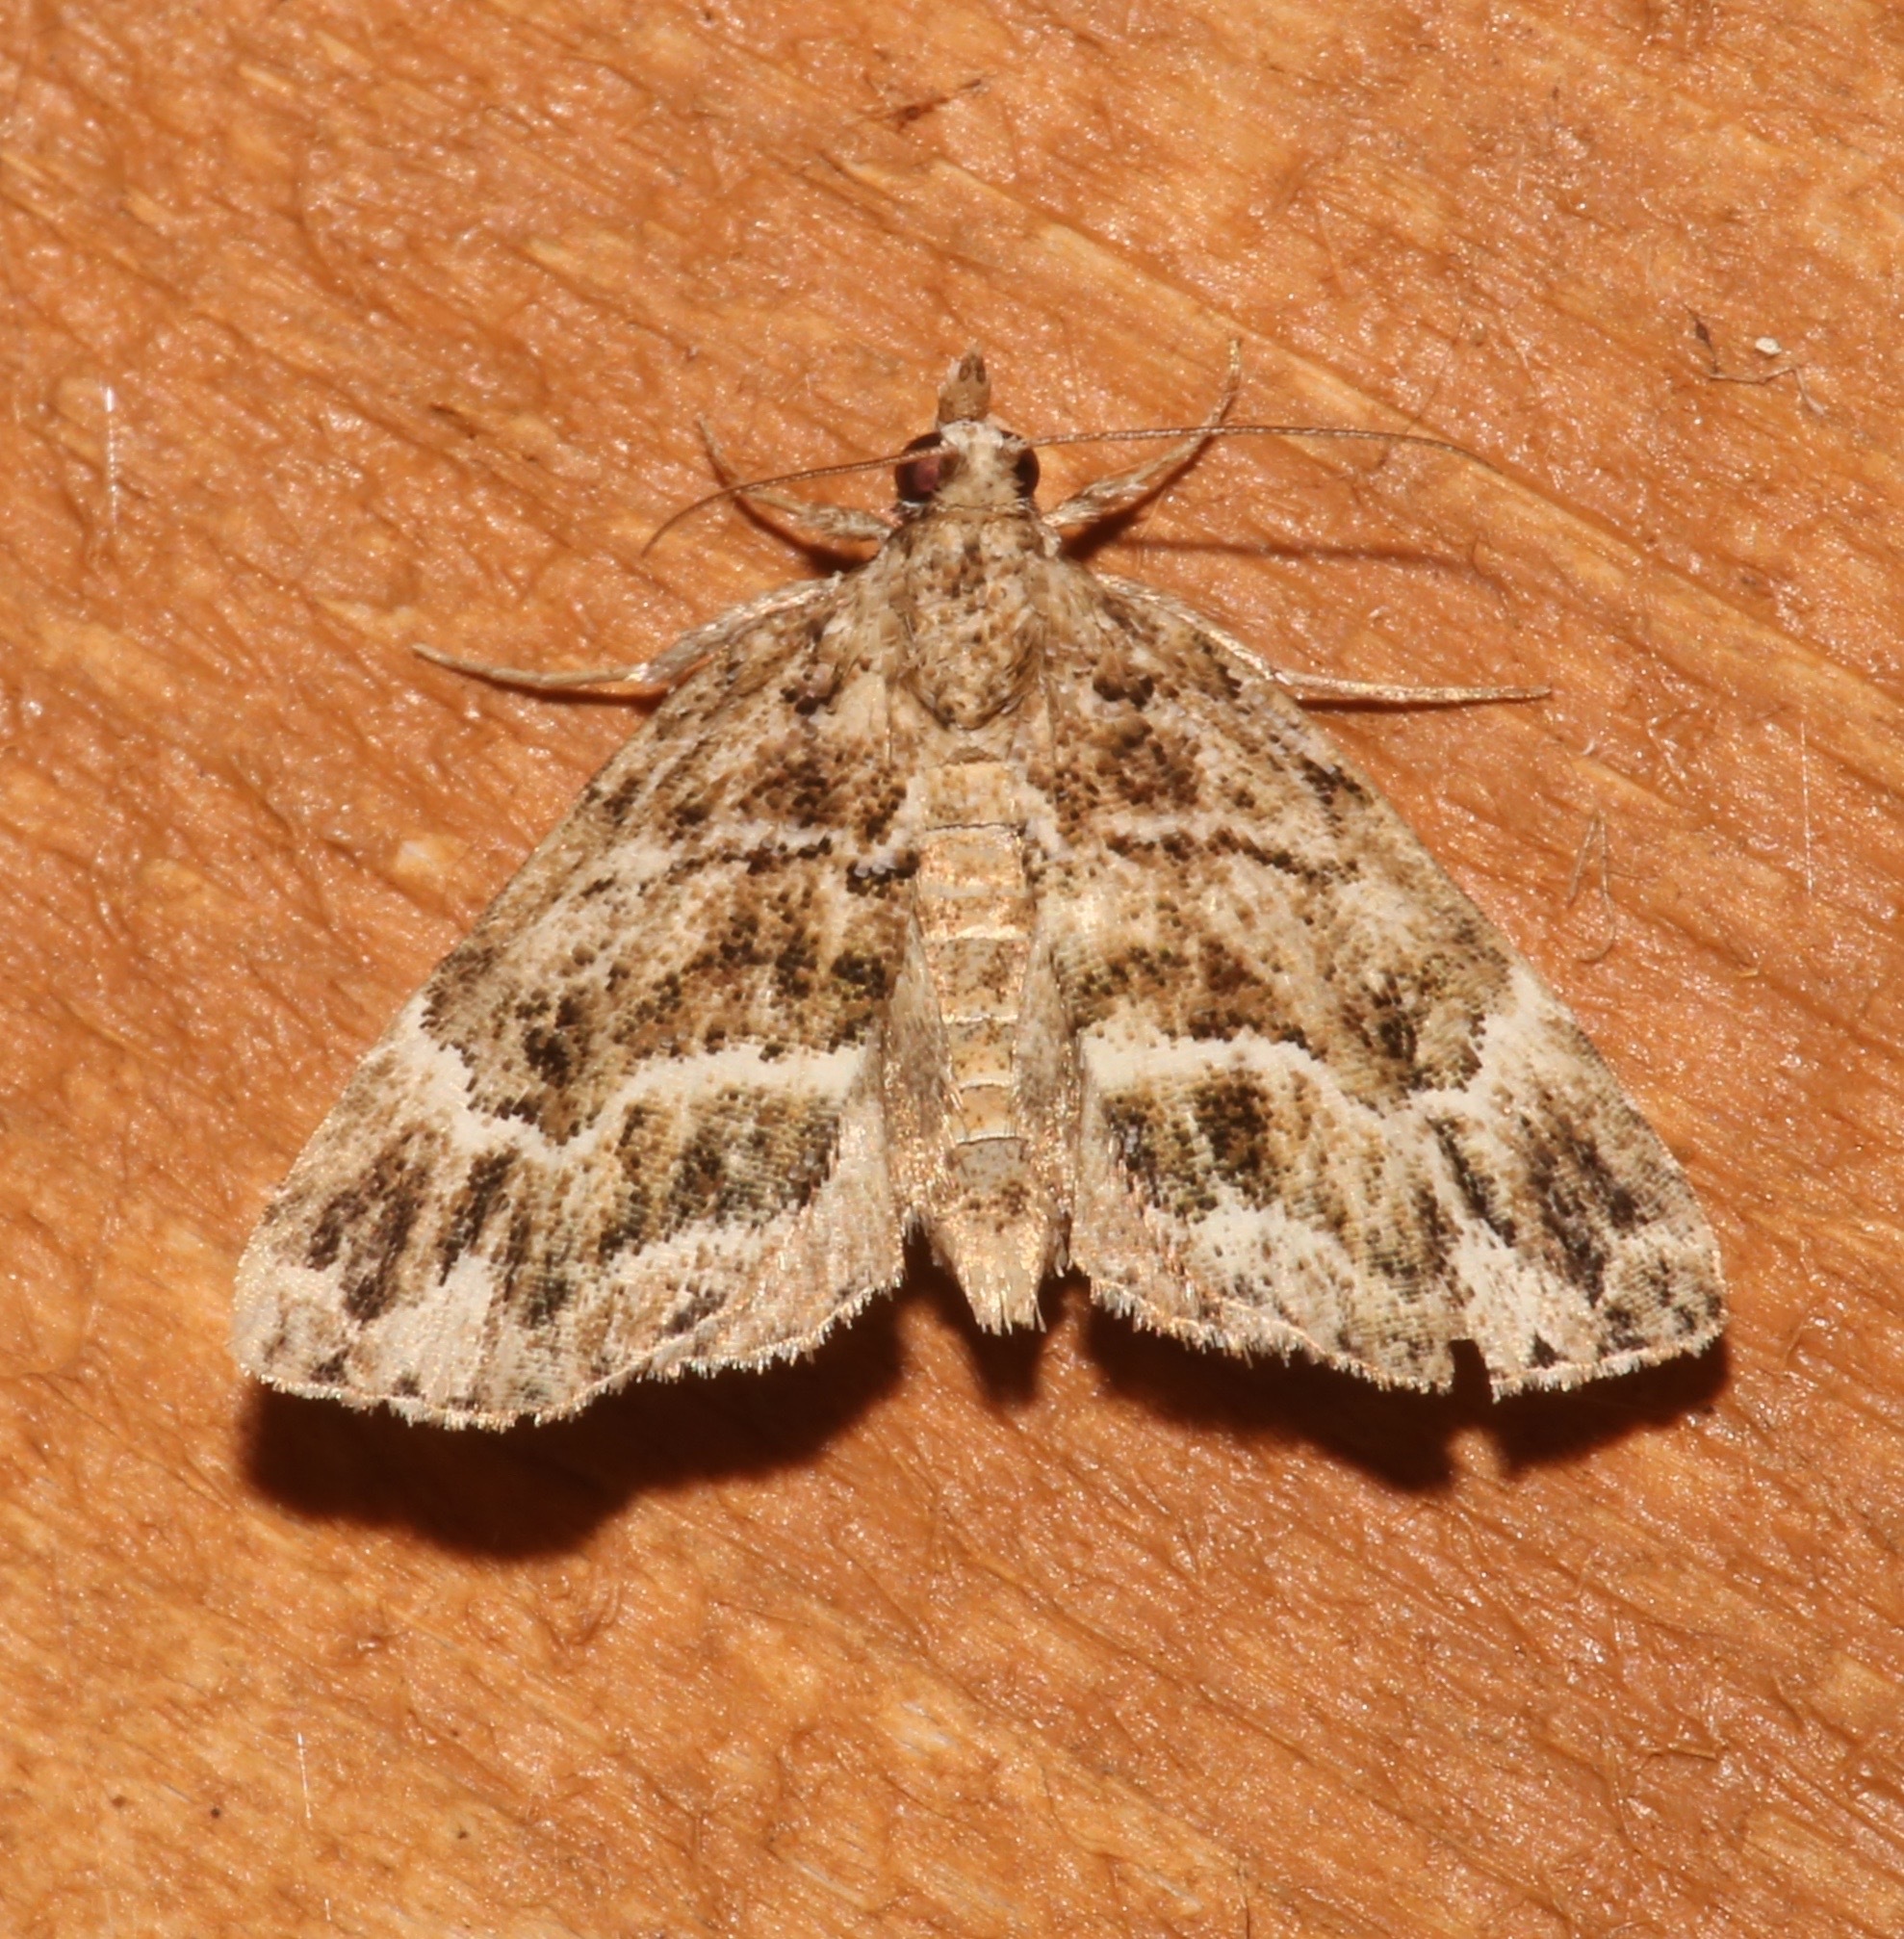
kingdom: Animalia
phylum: Arthropoda
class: Insecta
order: Lepidoptera
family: Erebidae
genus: Cutina
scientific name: Cutina arcuata
